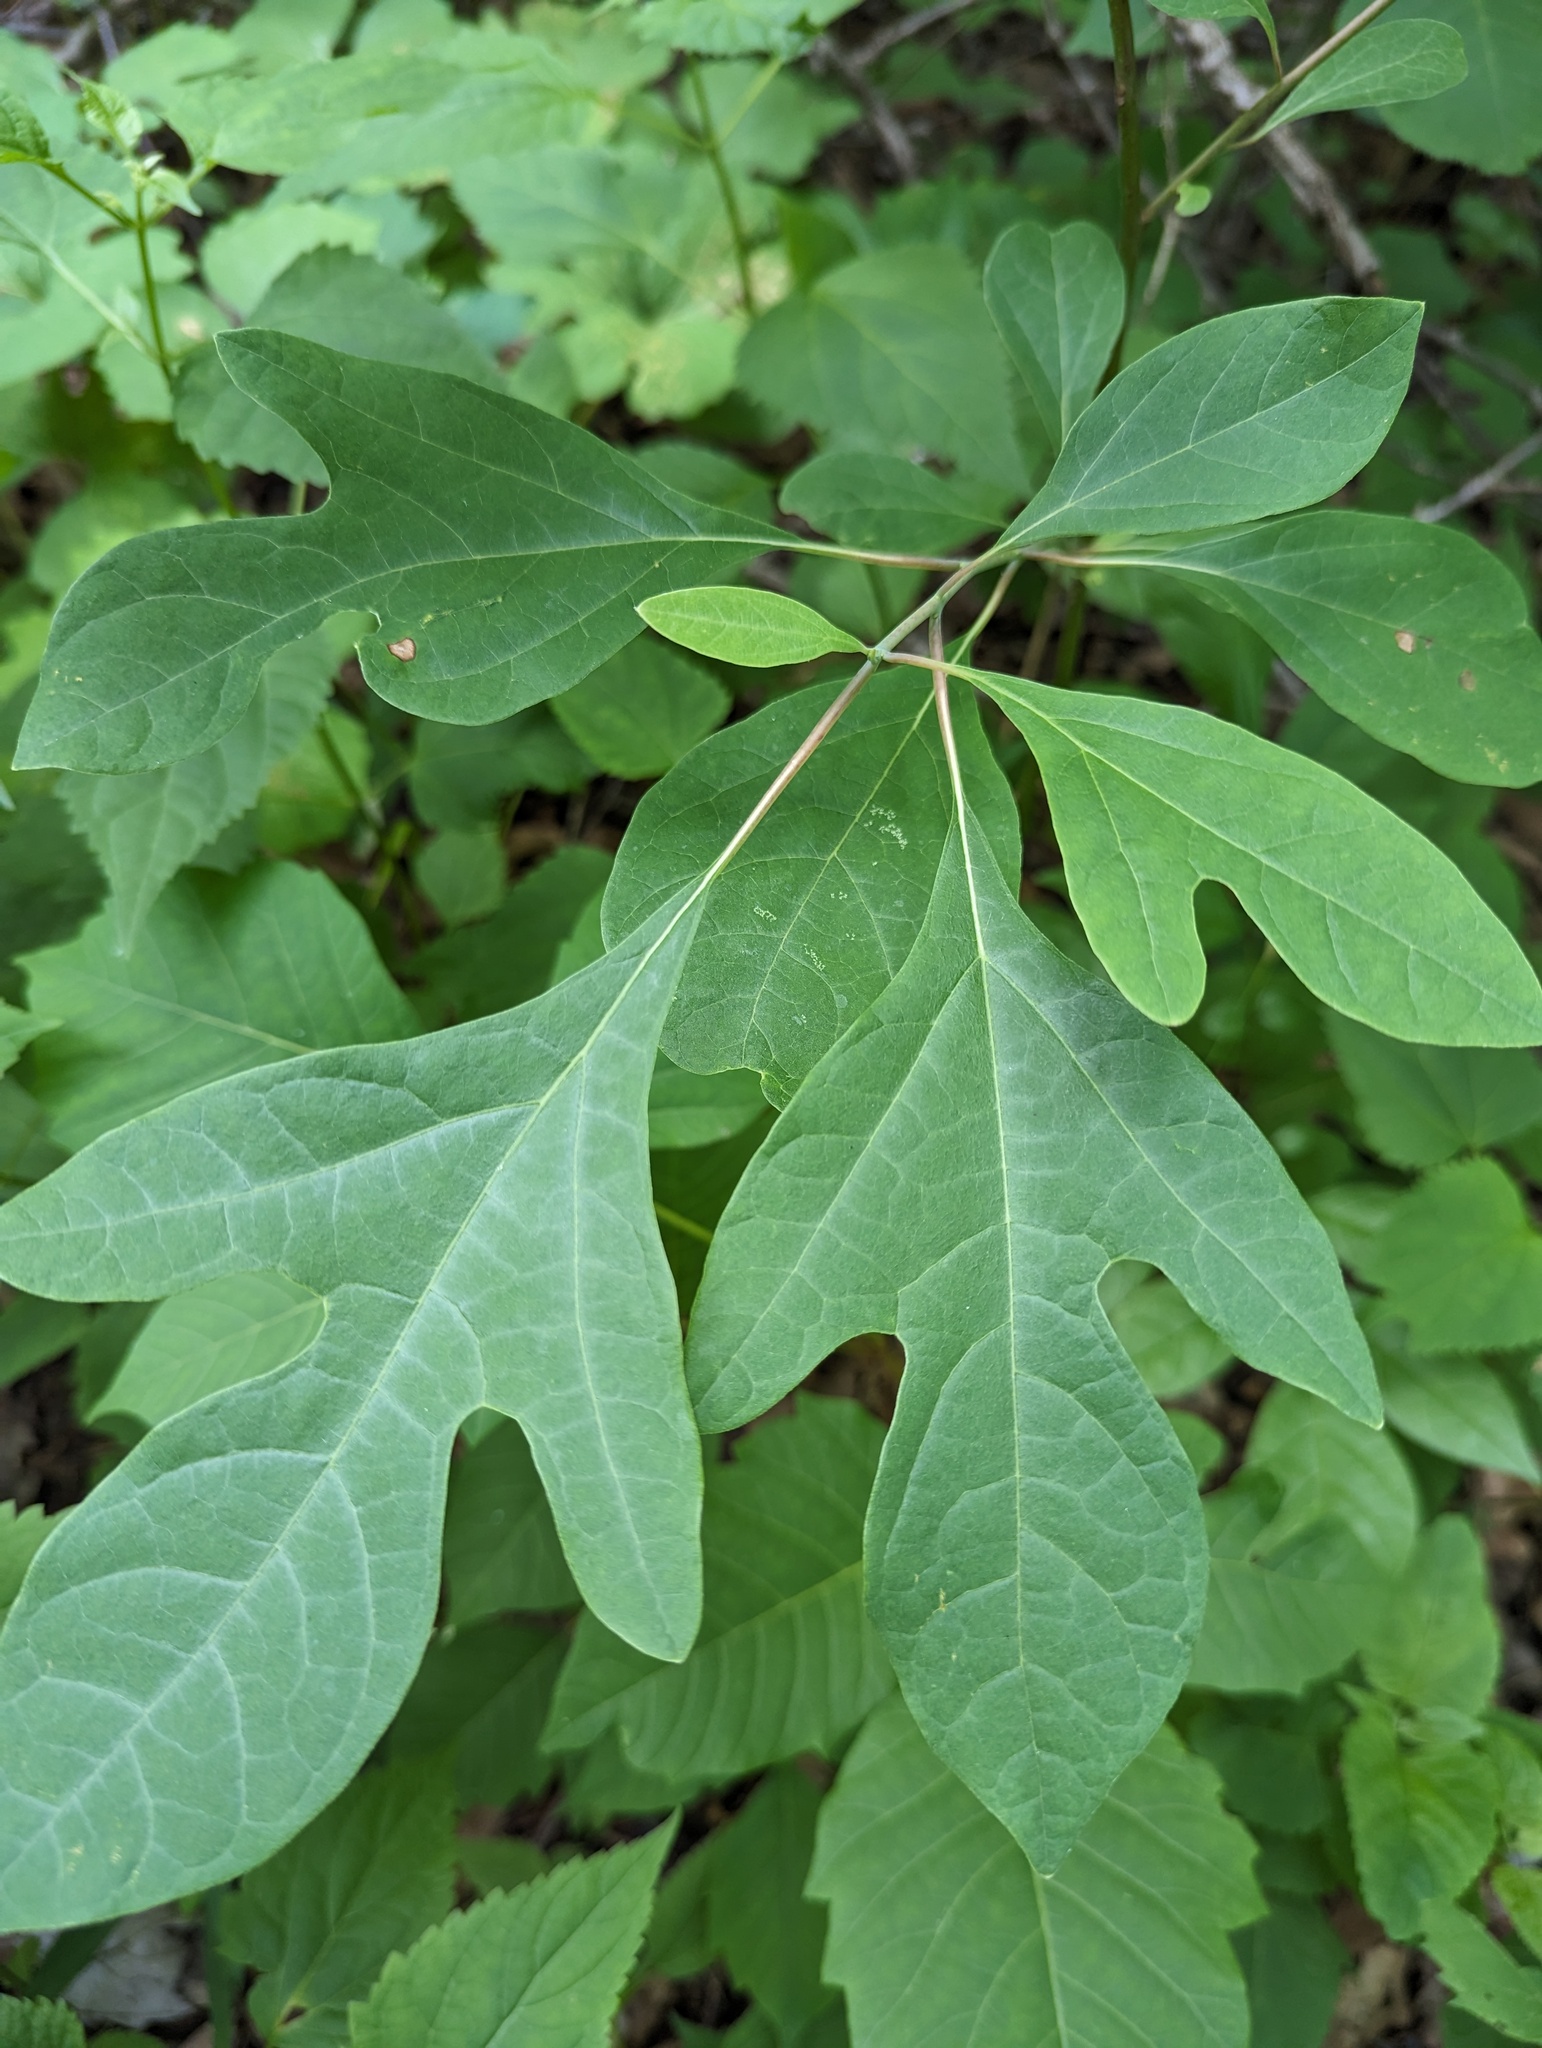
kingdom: Plantae
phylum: Tracheophyta
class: Magnoliopsida
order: Laurales
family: Lauraceae
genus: Sassafras
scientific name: Sassafras albidum
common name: Sassafras
